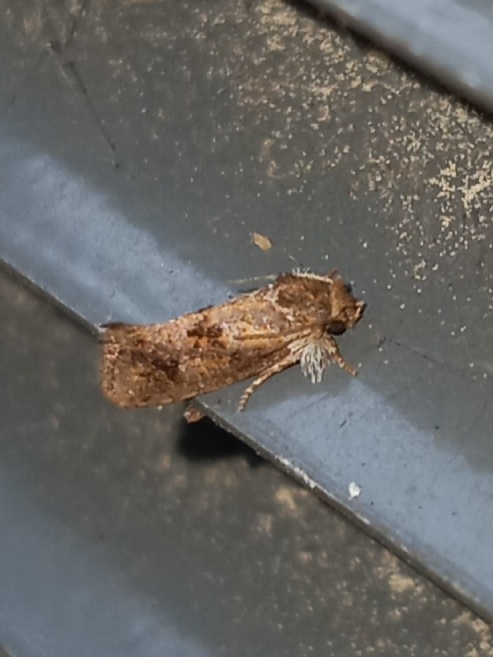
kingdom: Animalia
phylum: Arthropoda
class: Insecta
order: Lepidoptera
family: Tineidae
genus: Acrolophus
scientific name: Acrolophus panamae
